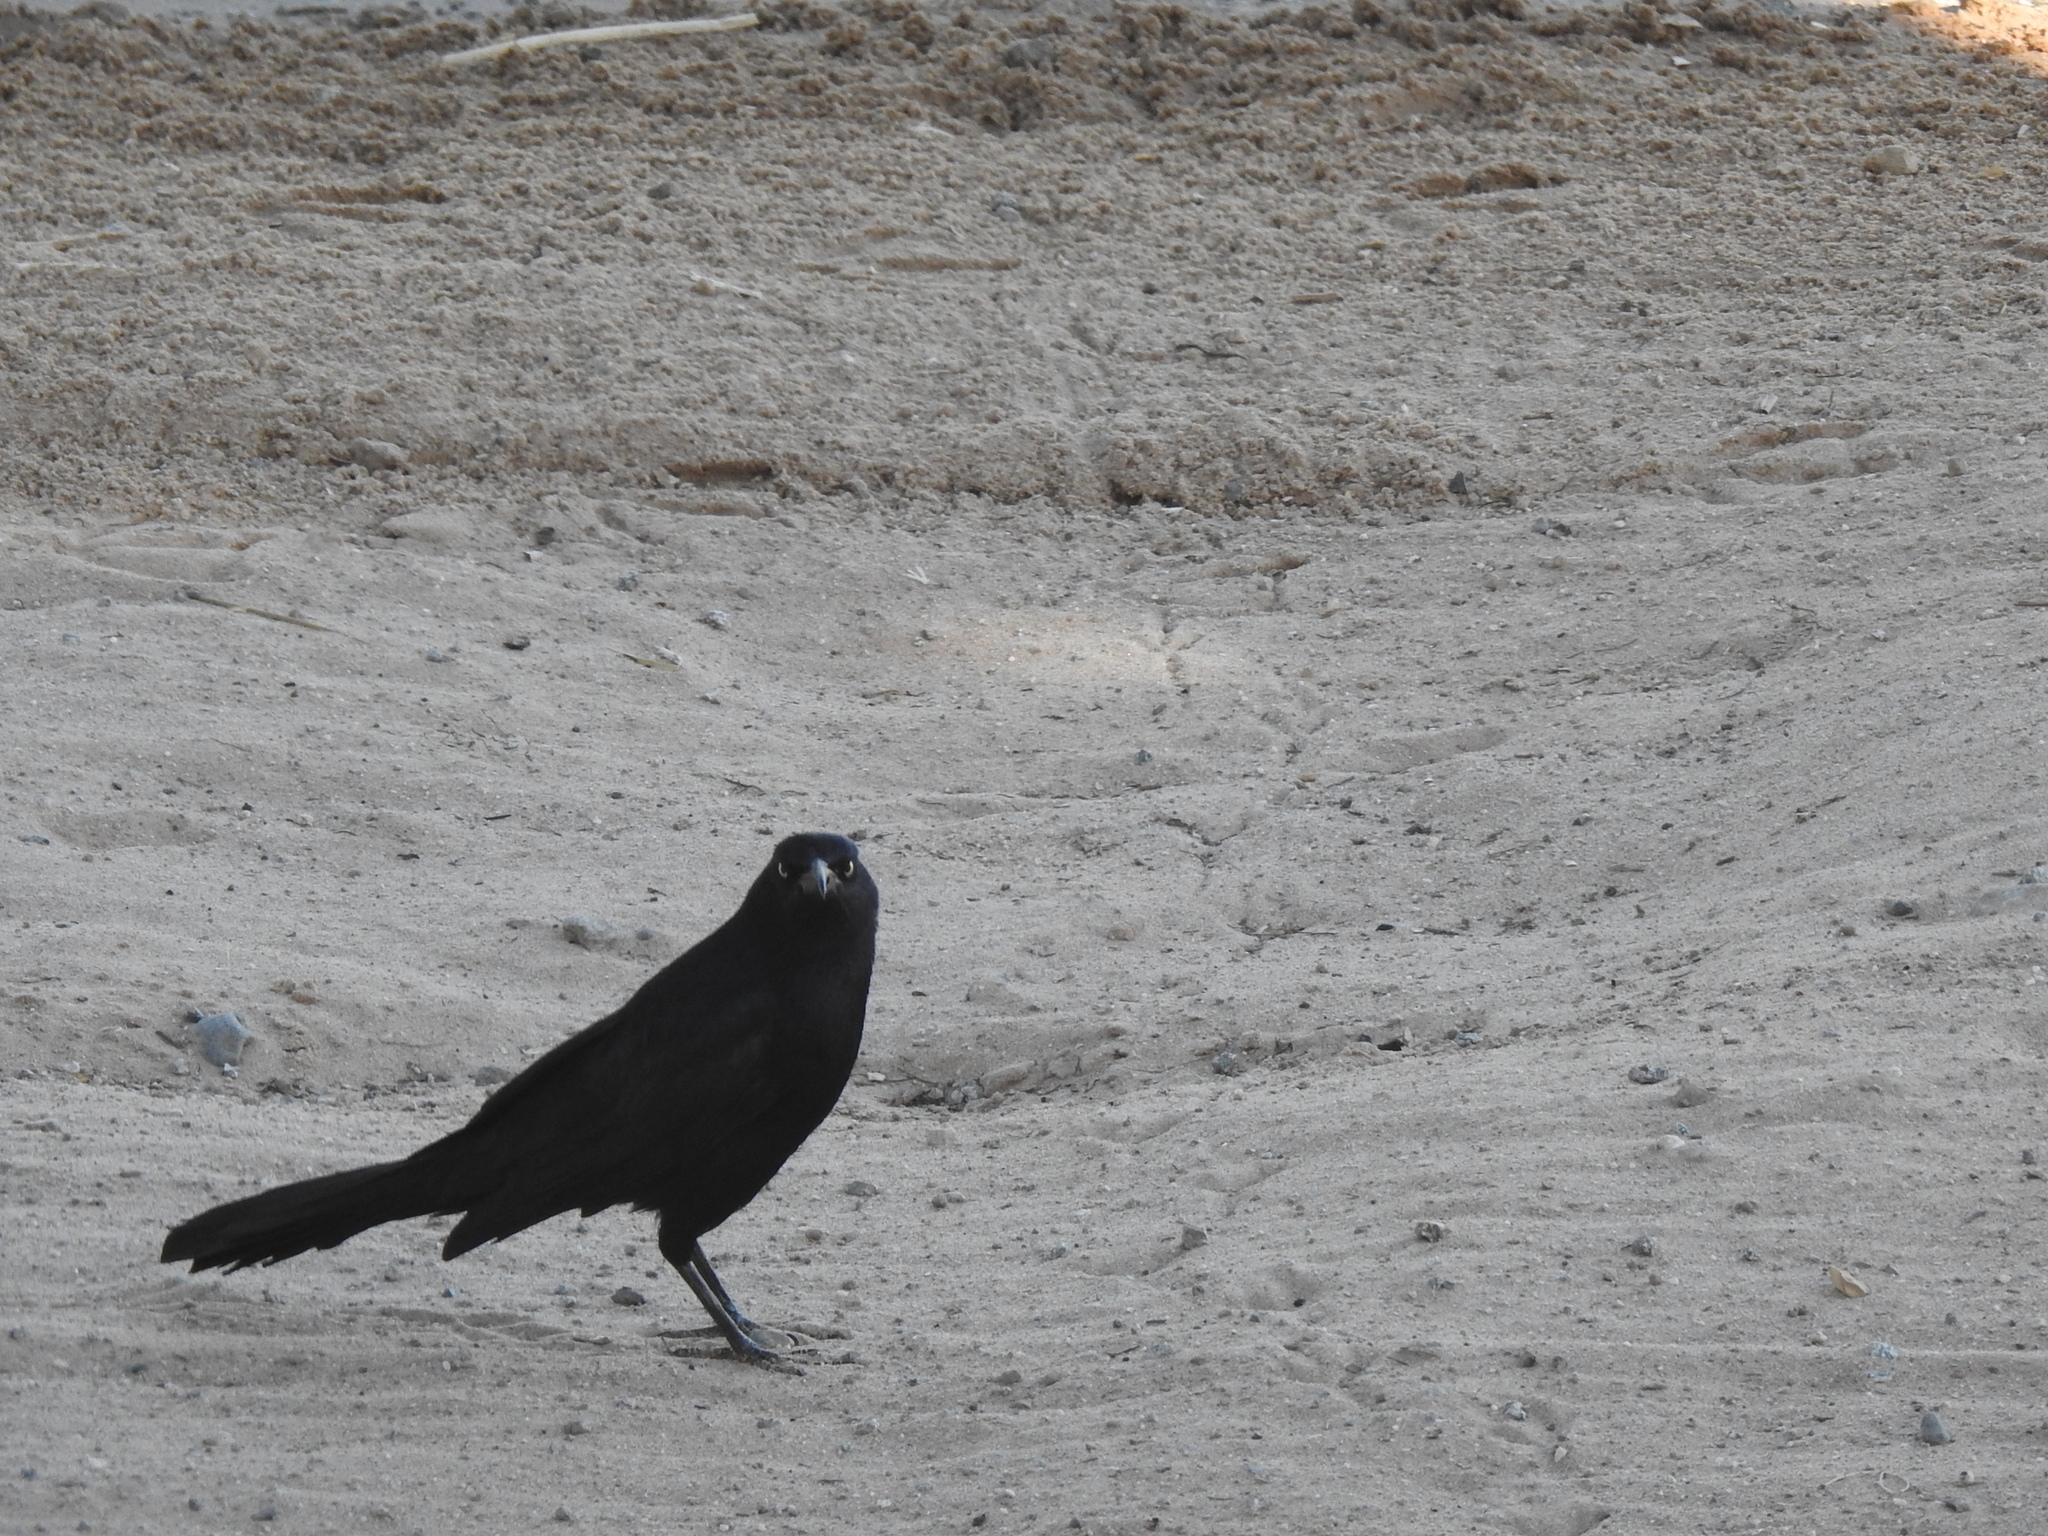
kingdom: Animalia
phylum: Chordata
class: Aves
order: Passeriformes
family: Icteridae
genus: Quiscalus
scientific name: Quiscalus mexicanus
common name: Great-tailed grackle
